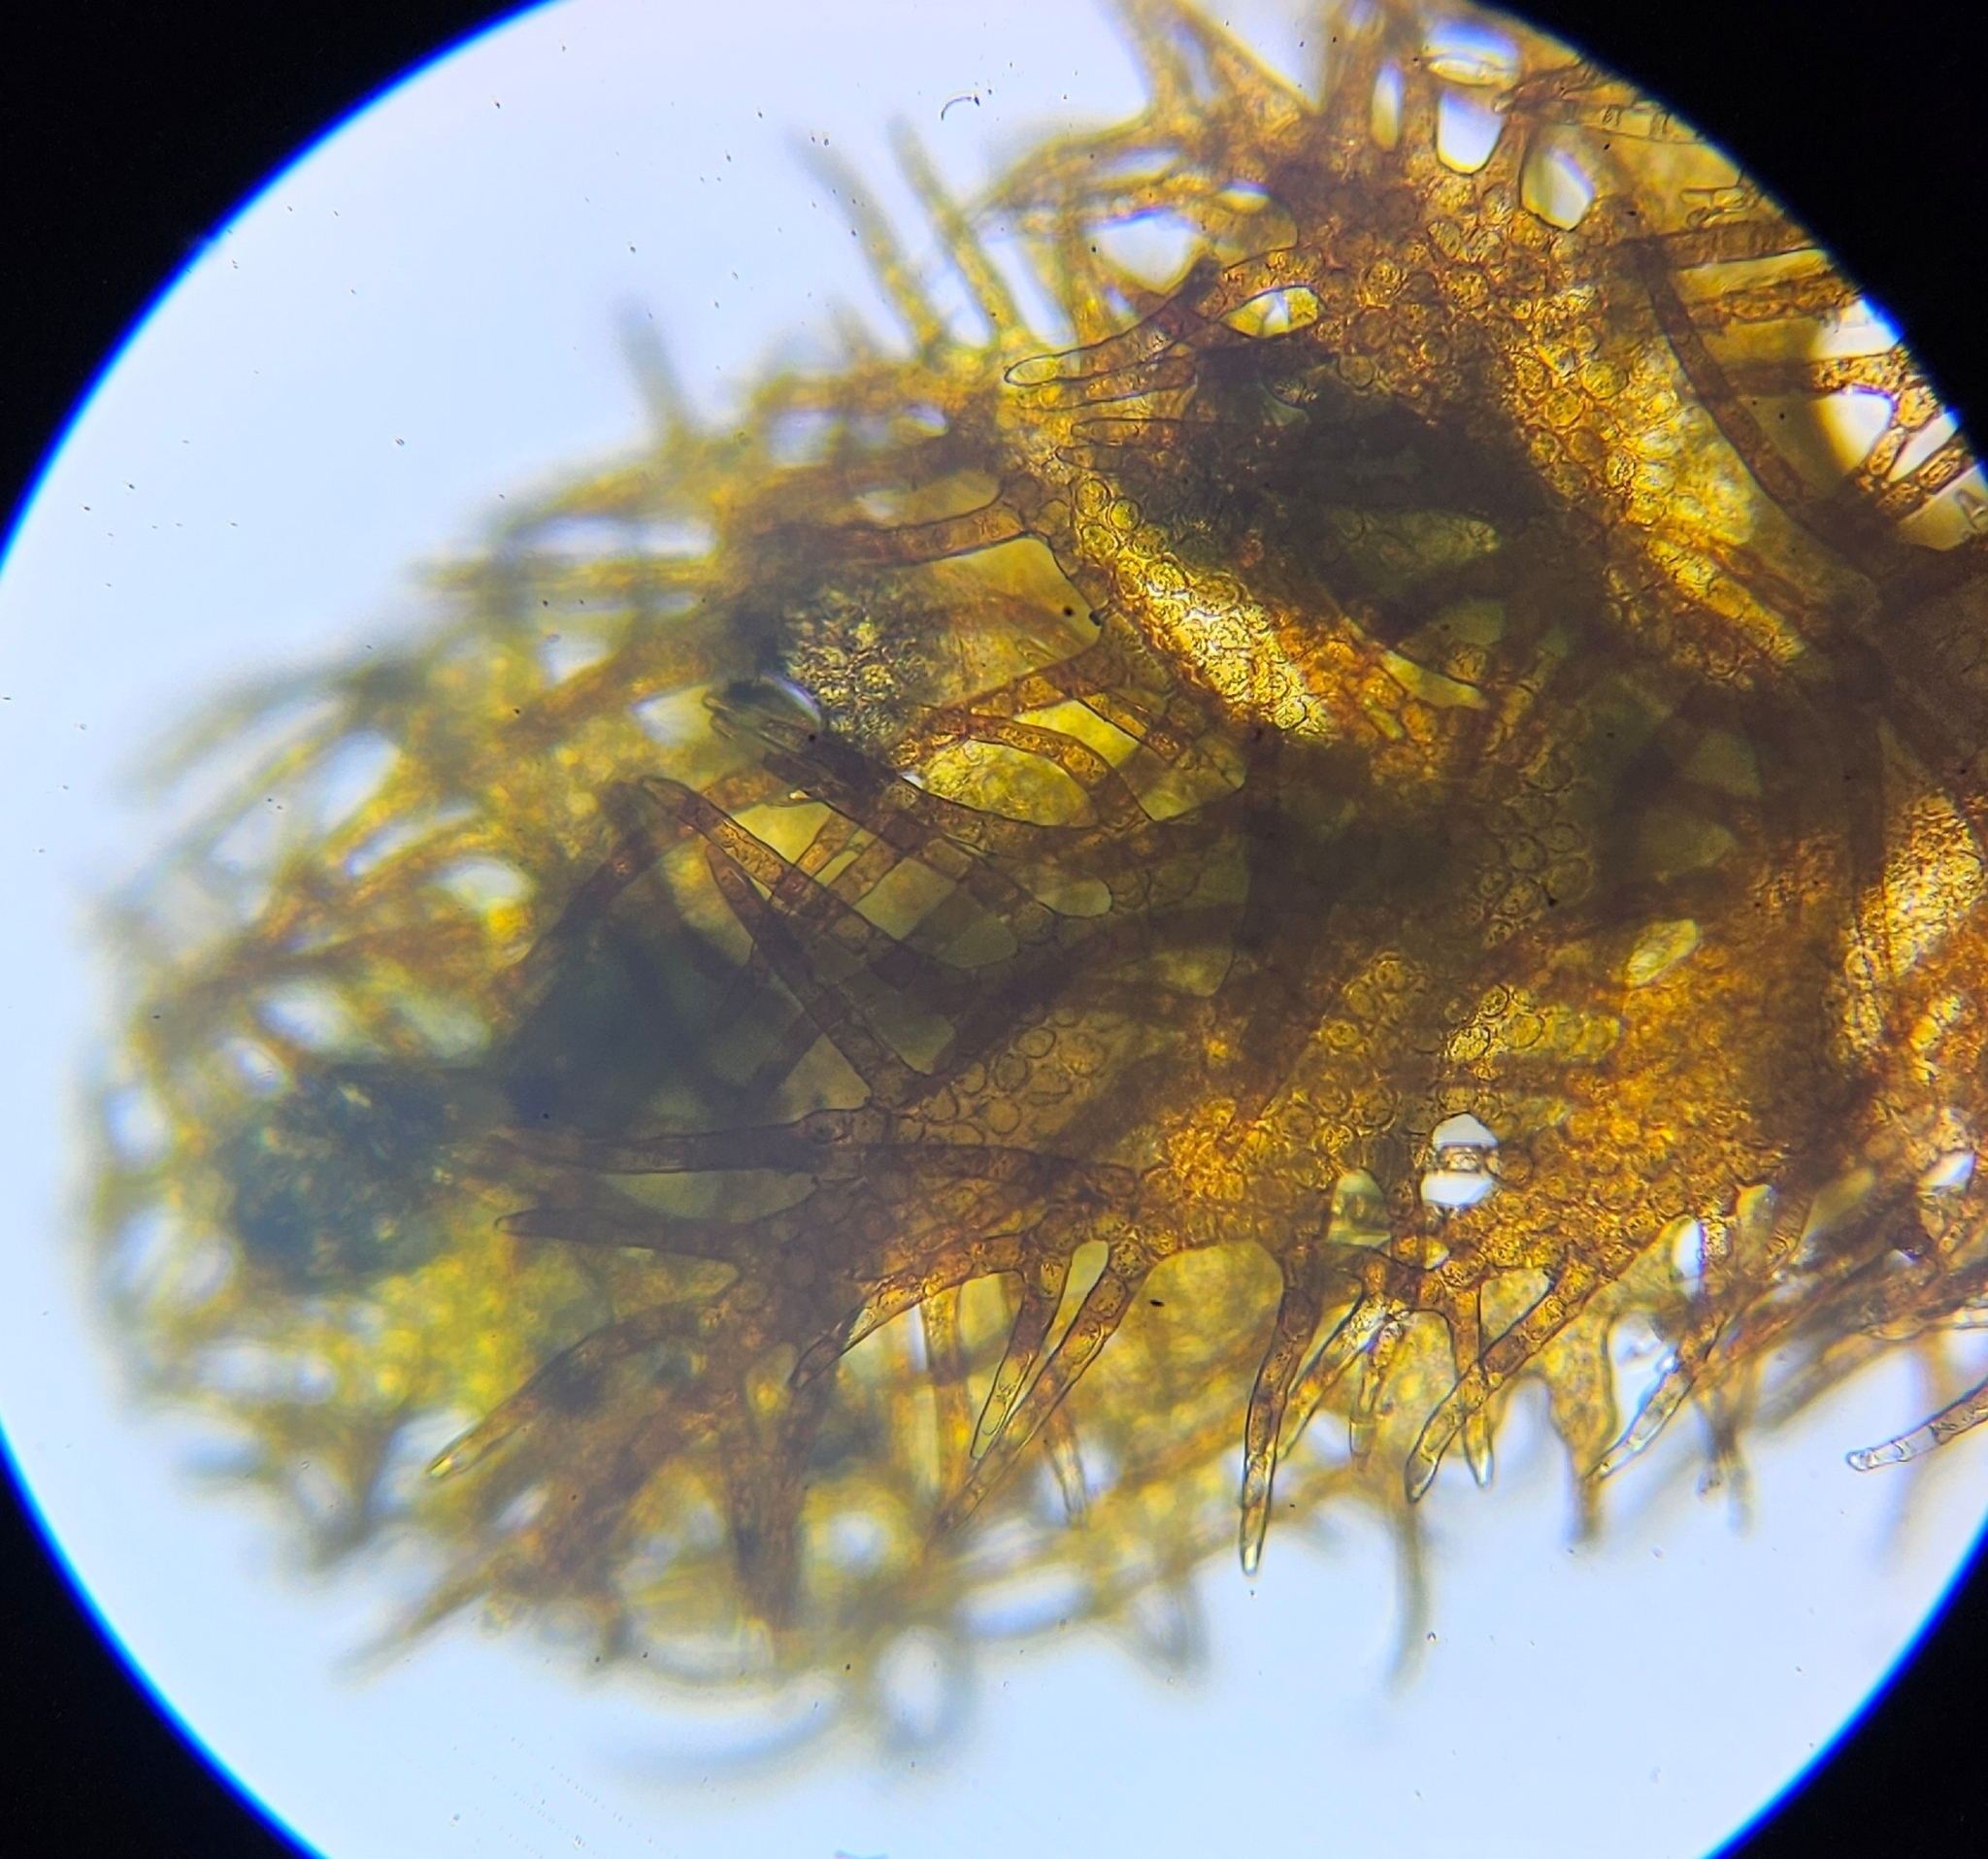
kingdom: Plantae
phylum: Marchantiophyta
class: Jungermanniopsida
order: Ptilidiales
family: Ptilidiaceae
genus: Ptilidium
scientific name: Ptilidium ciliare
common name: Ciliate fringewort
